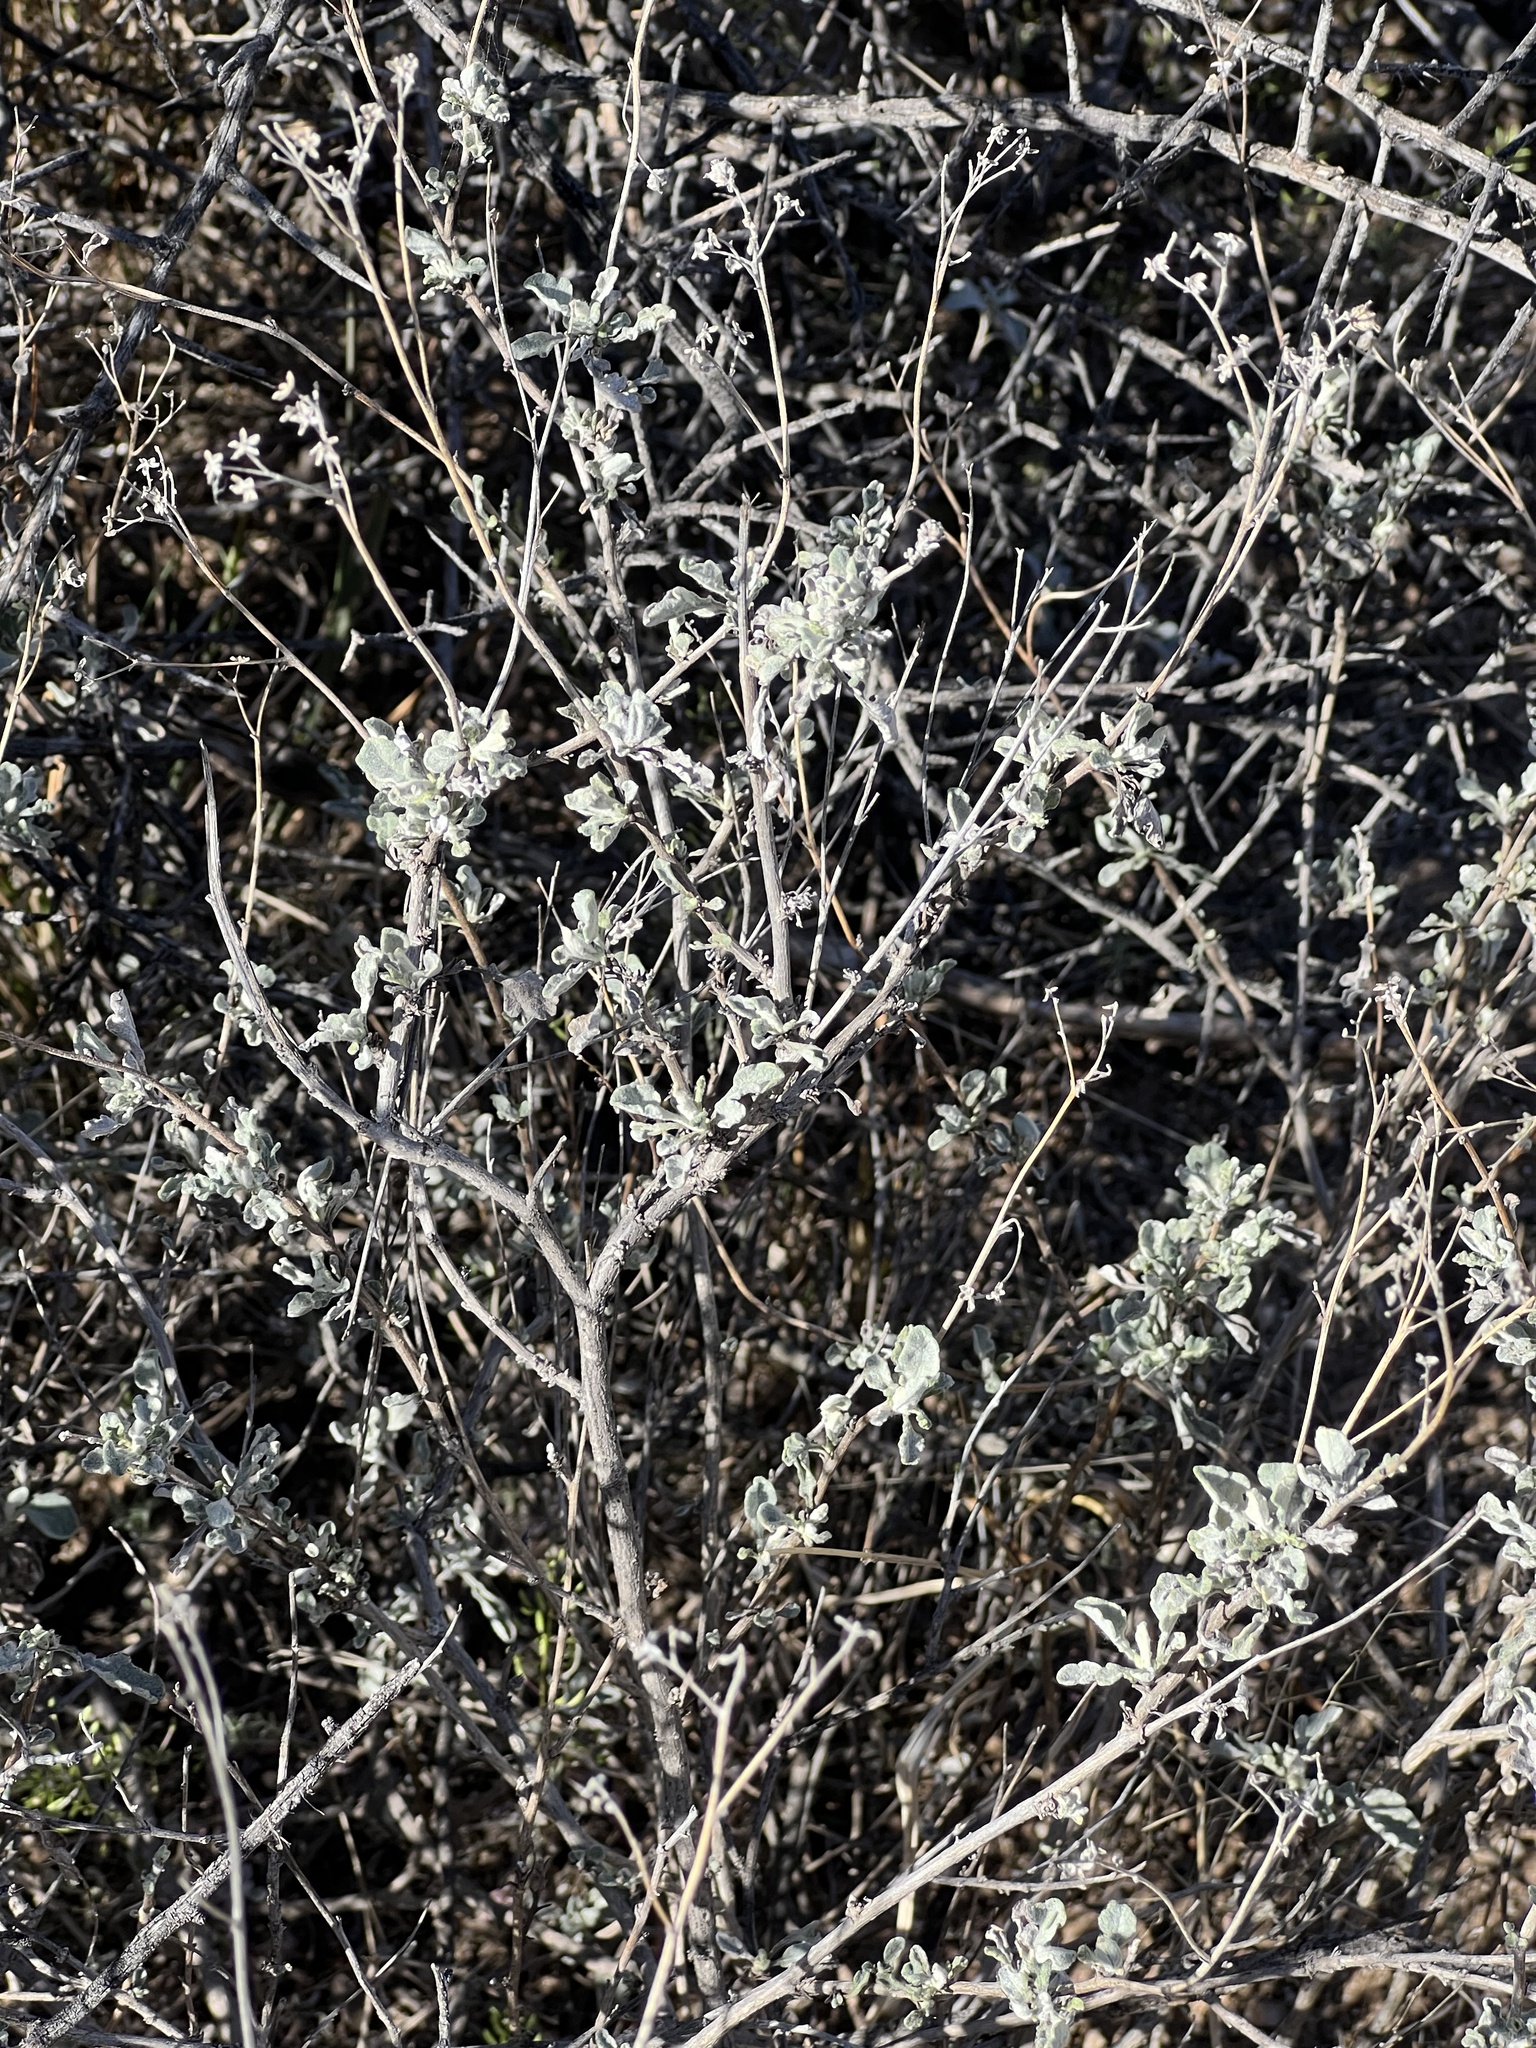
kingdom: Plantae
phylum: Tracheophyta
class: Magnoliopsida
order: Asterales
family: Asteraceae
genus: Parthenium
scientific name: Parthenium incanum
